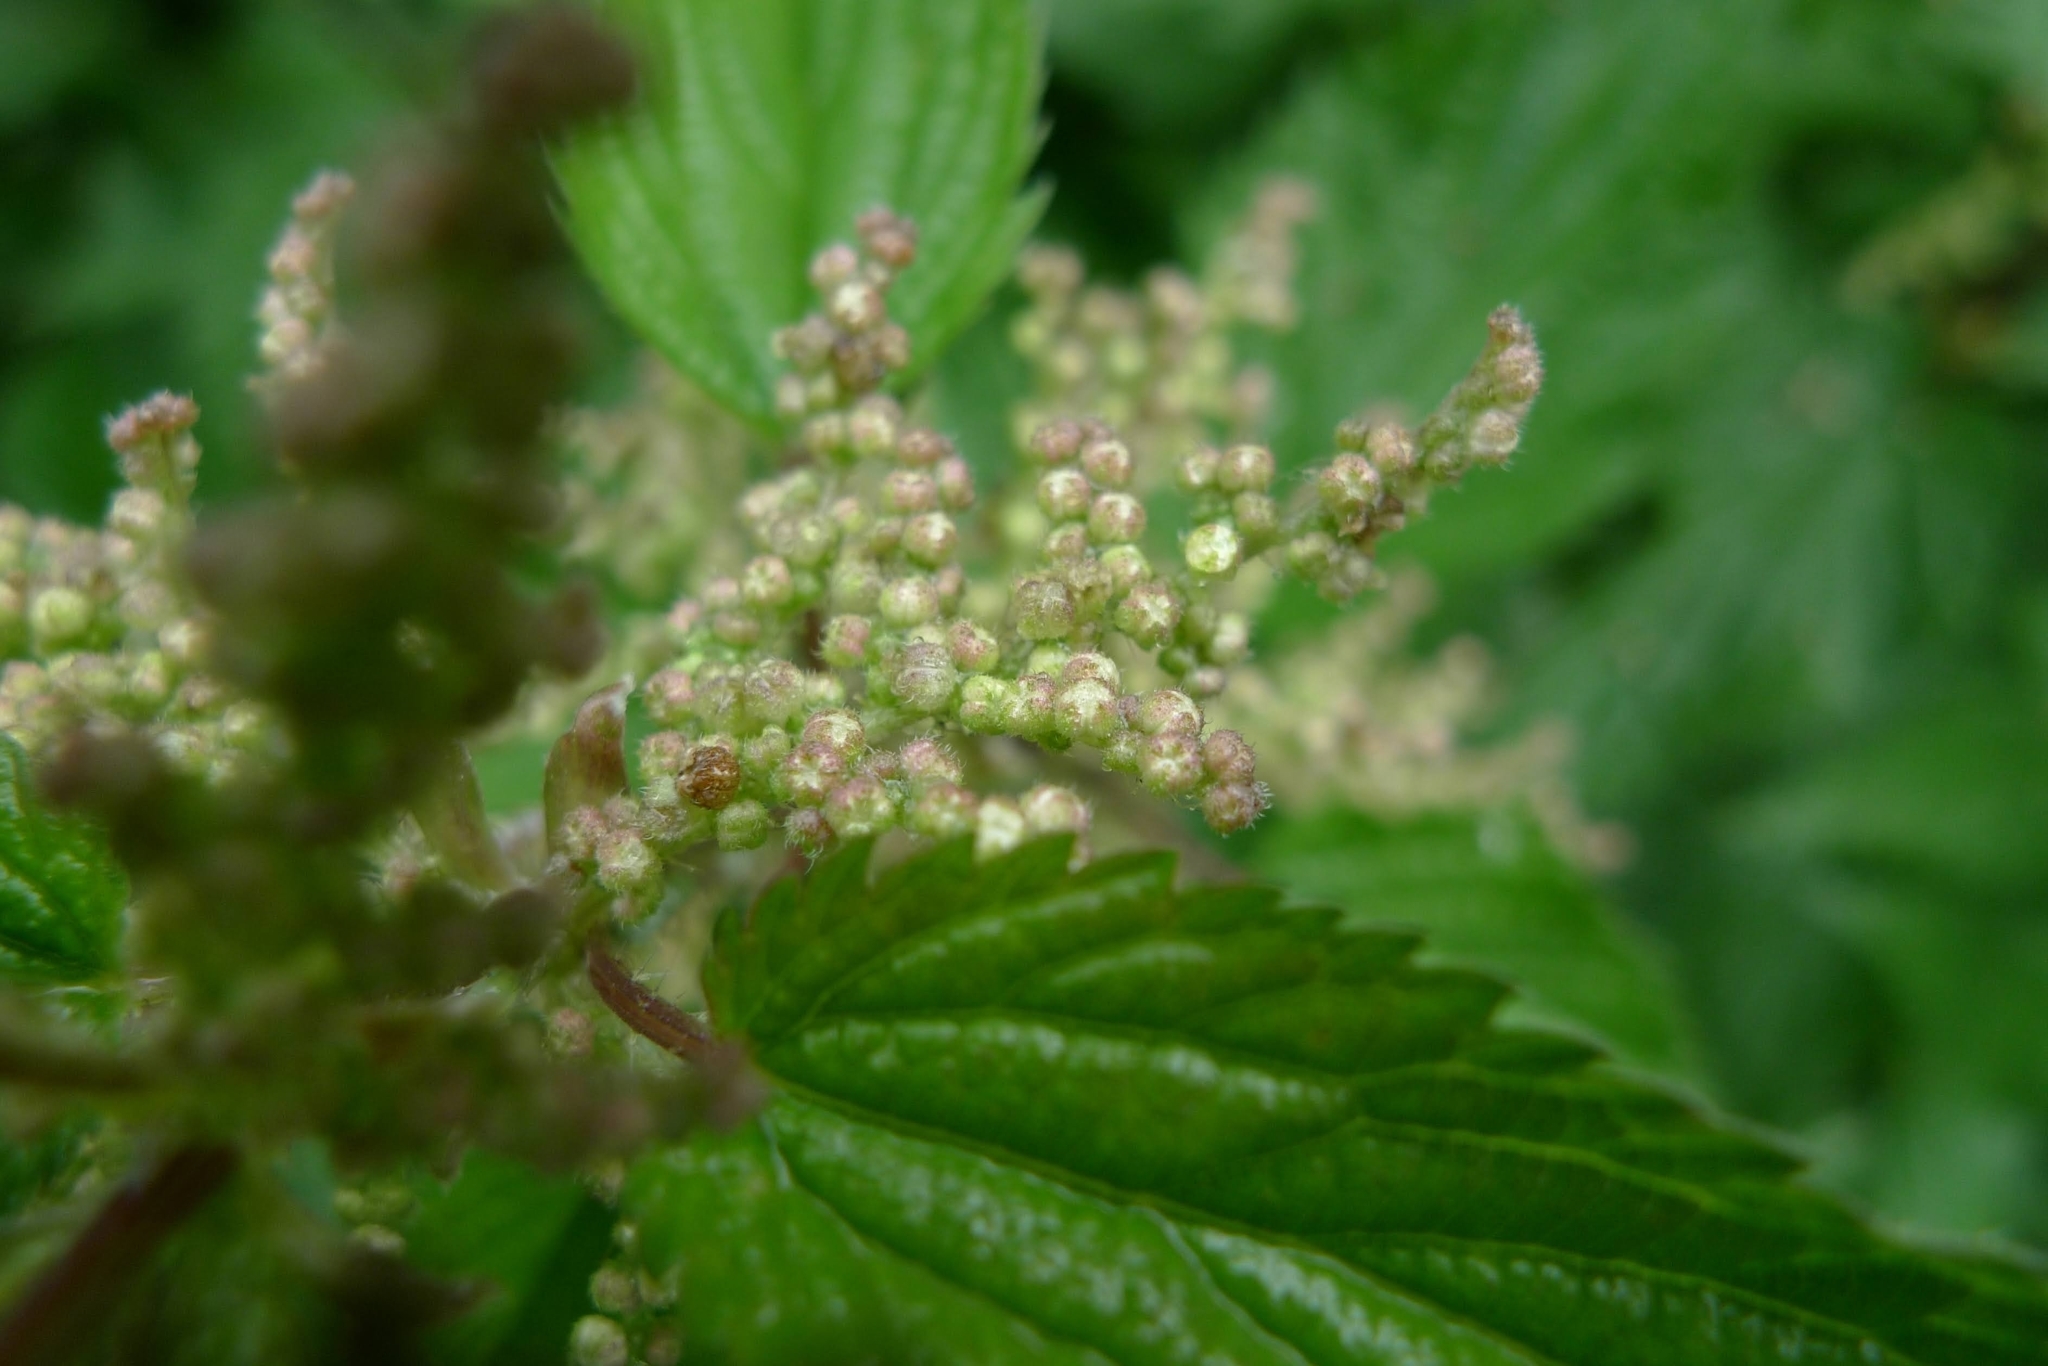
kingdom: Plantae
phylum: Tracheophyta
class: Magnoliopsida
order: Rosales
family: Urticaceae
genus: Urtica
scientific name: Urtica dioica
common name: Common nettle
